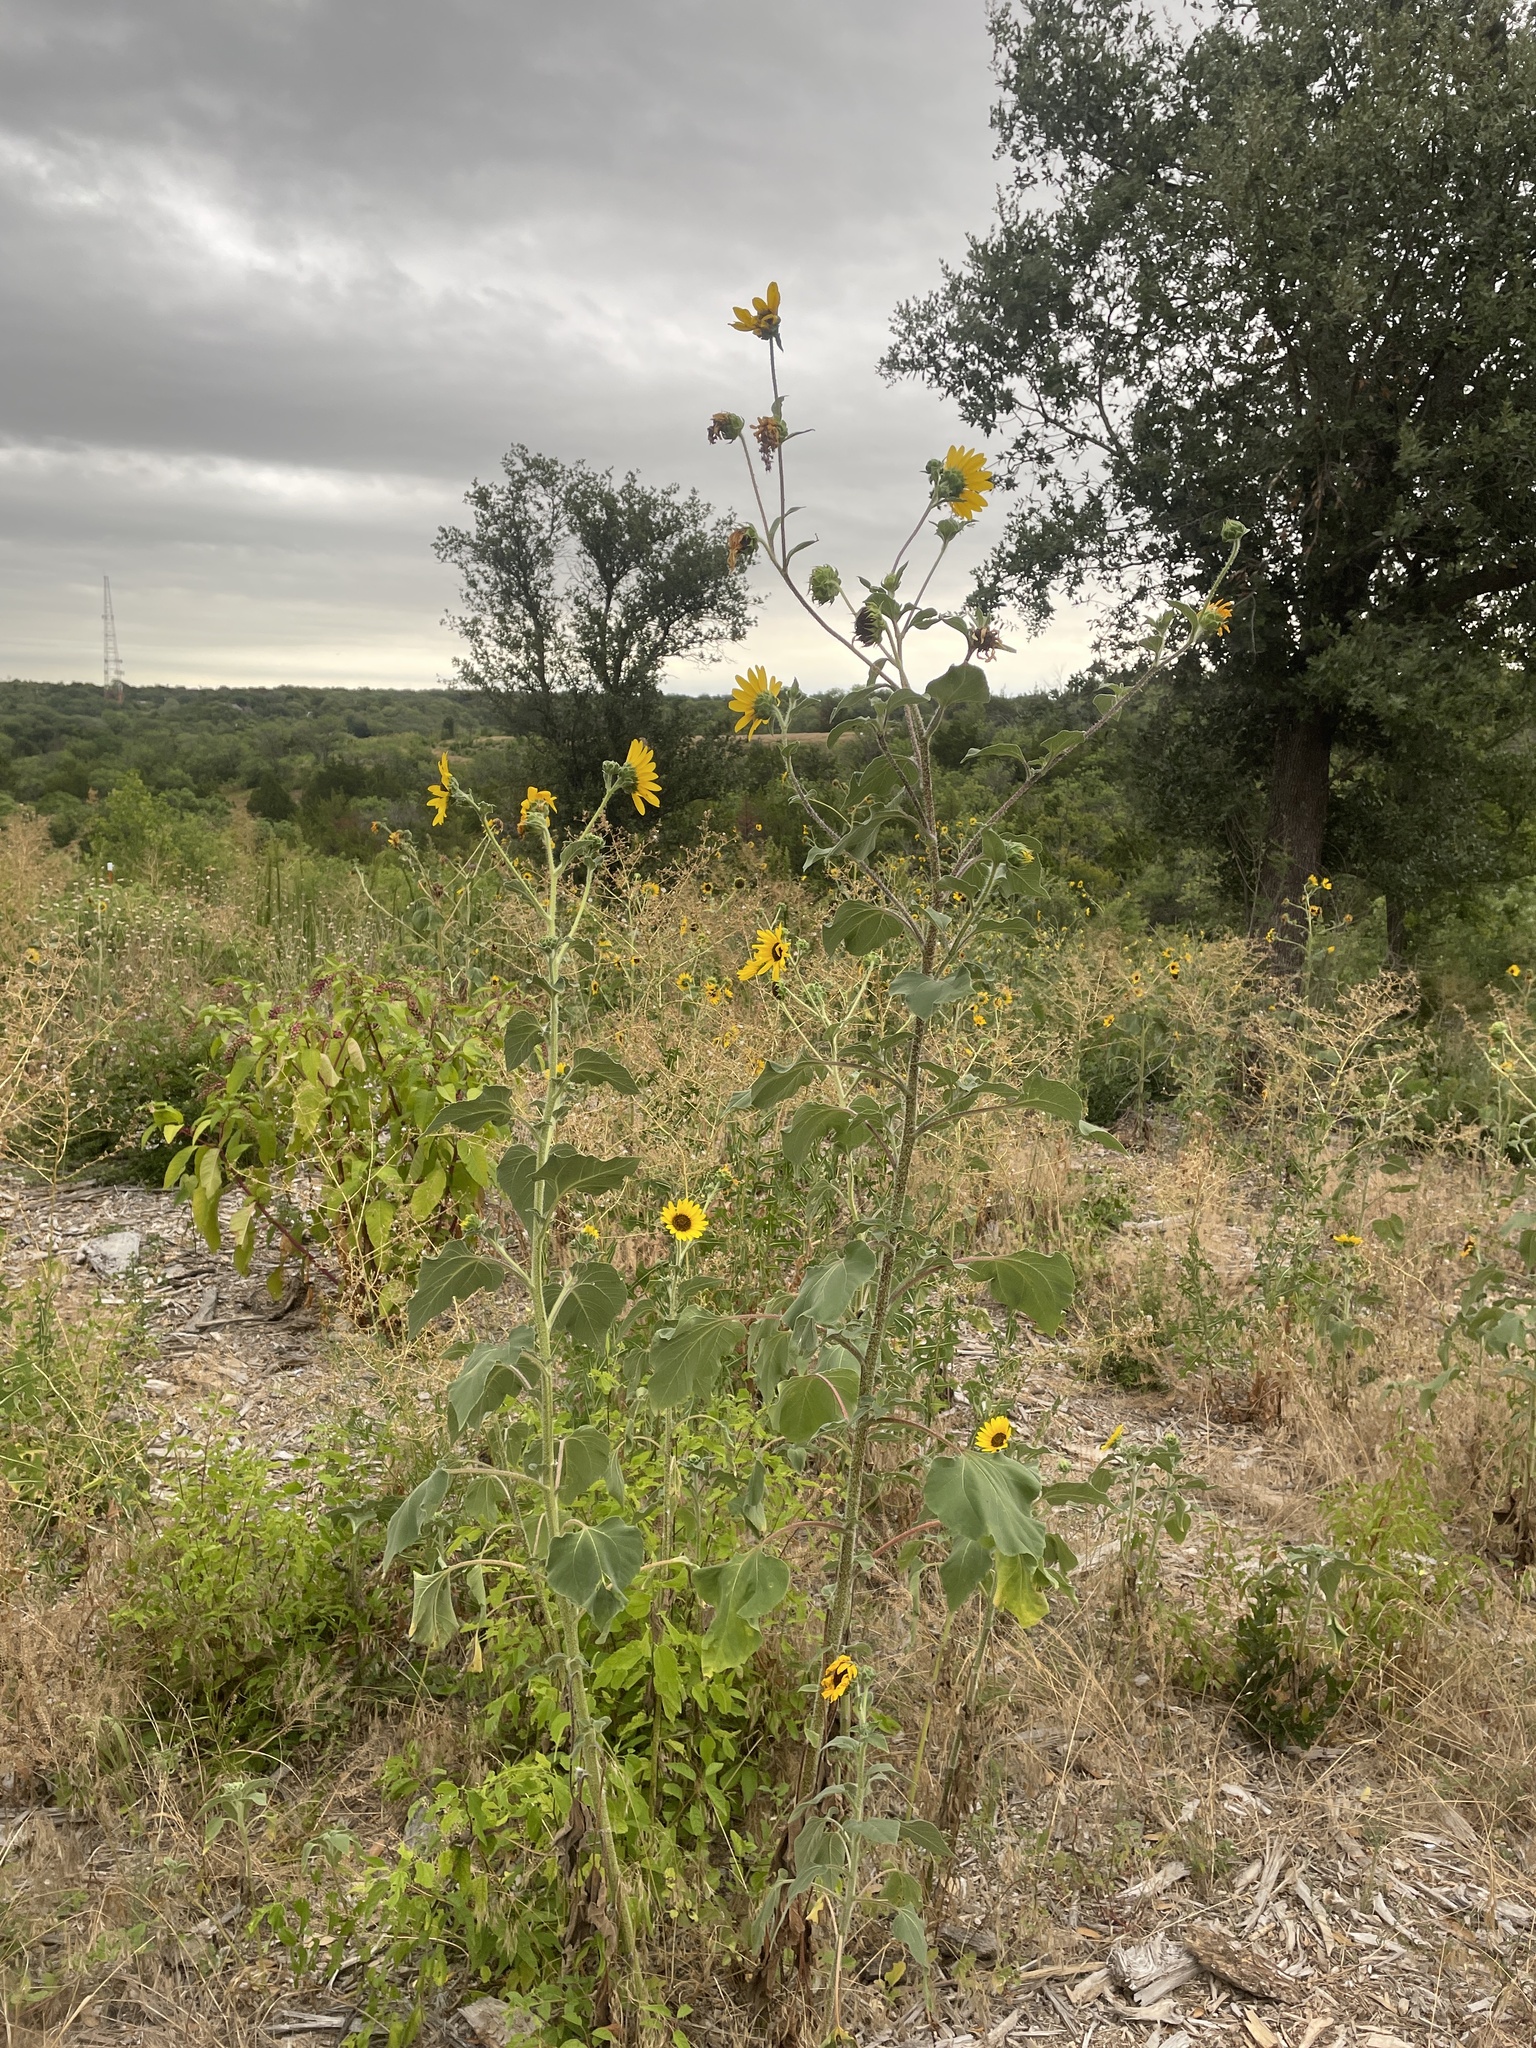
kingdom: Plantae
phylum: Tracheophyta
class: Magnoliopsida
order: Asterales
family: Asteraceae
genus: Helianthus
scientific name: Helianthus annuus
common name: Sunflower
